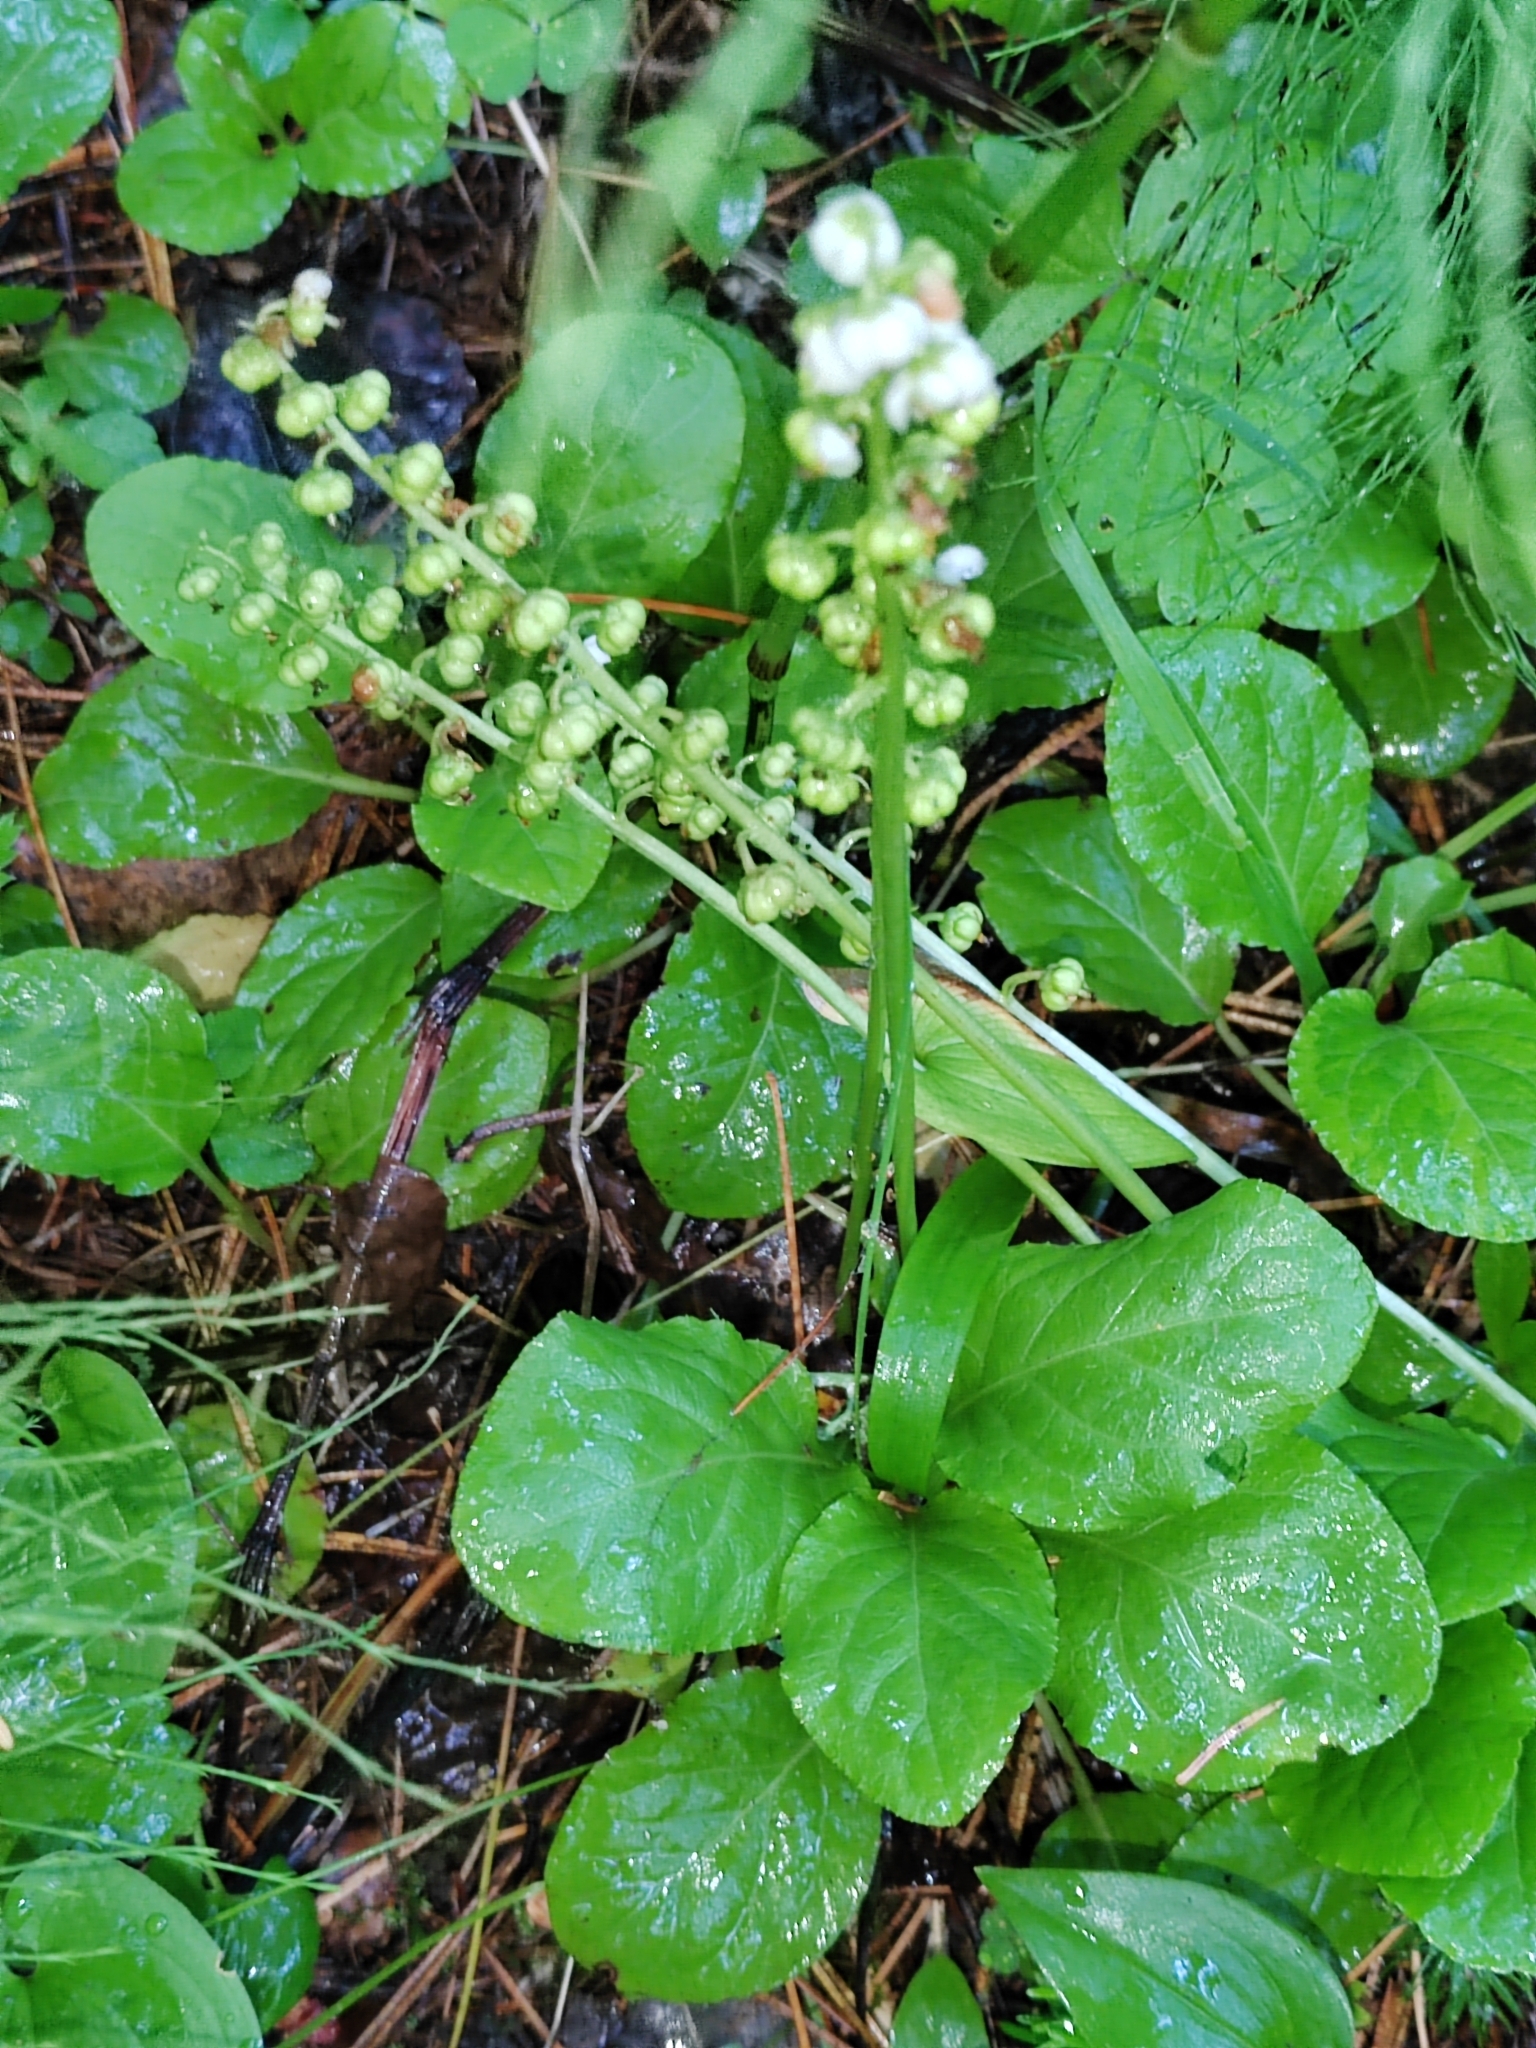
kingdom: Plantae
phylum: Tracheophyta
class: Magnoliopsida
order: Ericales
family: Ericaceae
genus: Pyrola
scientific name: Pyrola minor
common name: Common wintergreen
